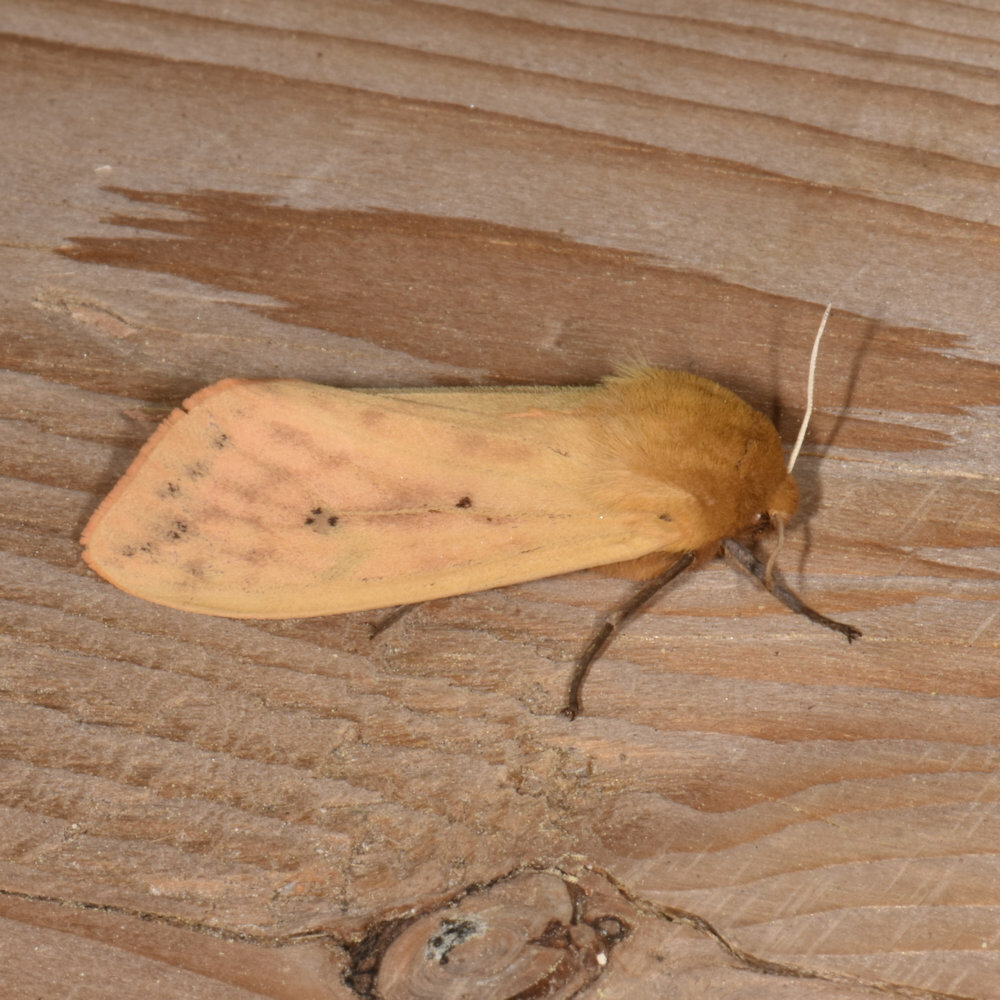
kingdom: Animalia
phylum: Arthropoda
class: Insecta
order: Lepidoptera
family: Erebidae
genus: Pyrrharctia
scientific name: Pyrrharctia isabella
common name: Isabella tiger moth
